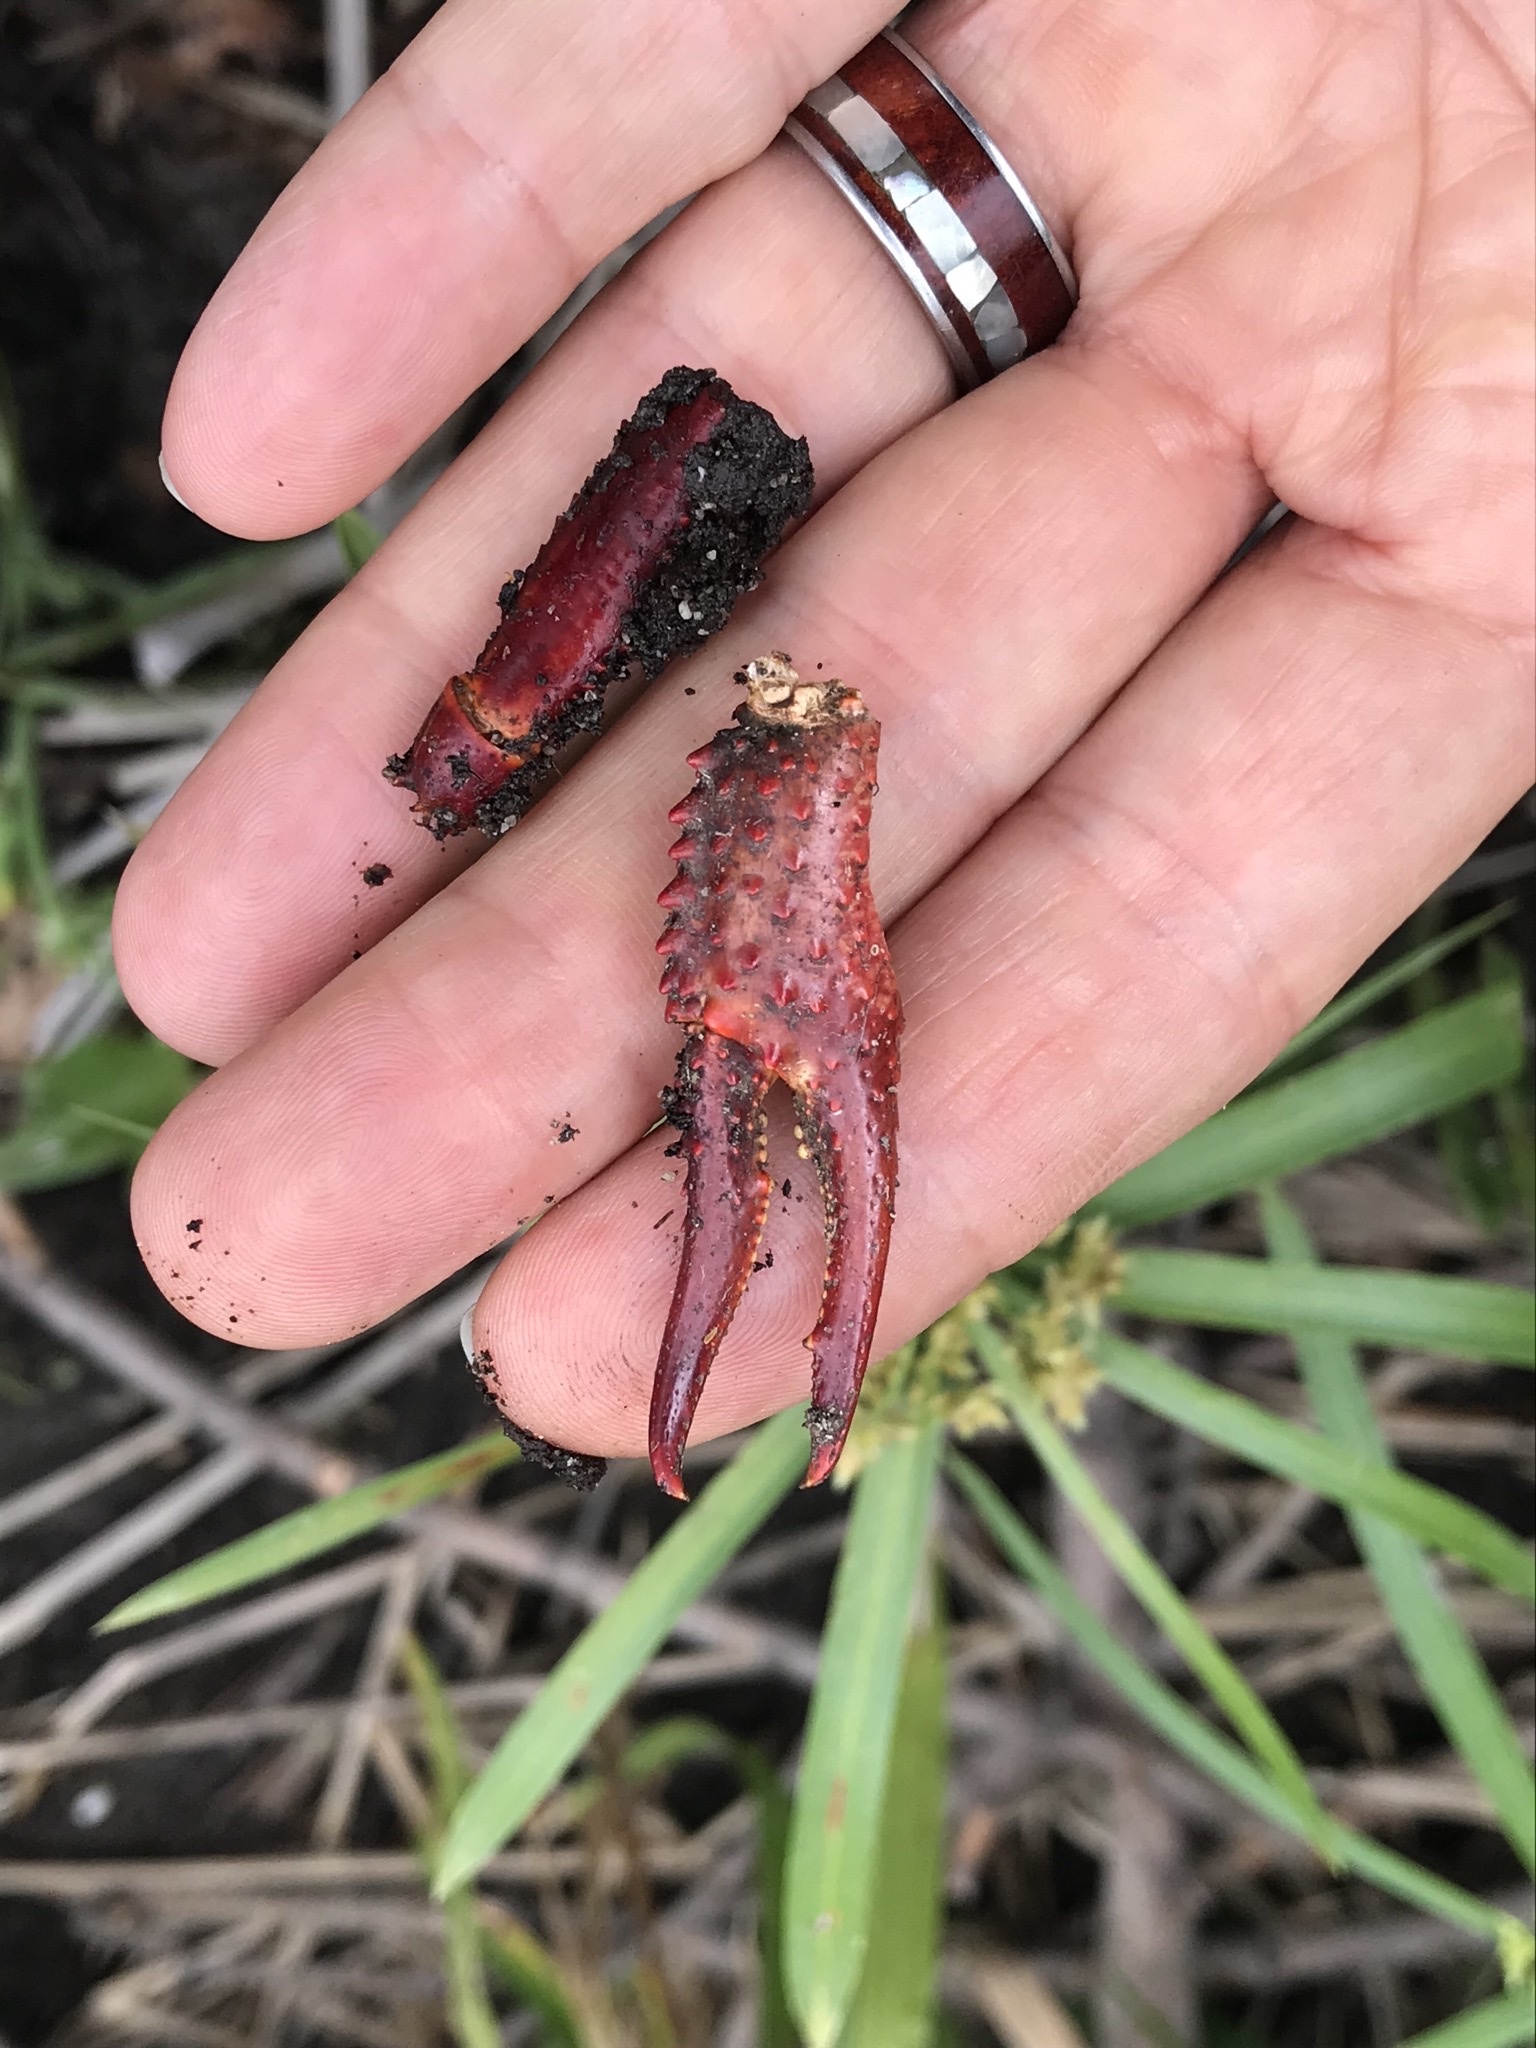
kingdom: Animalia
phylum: Arthropoda
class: Malacostraca
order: Decapoda
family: Cambaridae
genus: Procambarus
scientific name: Procambarus clarkii
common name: Red swamp crayfish
